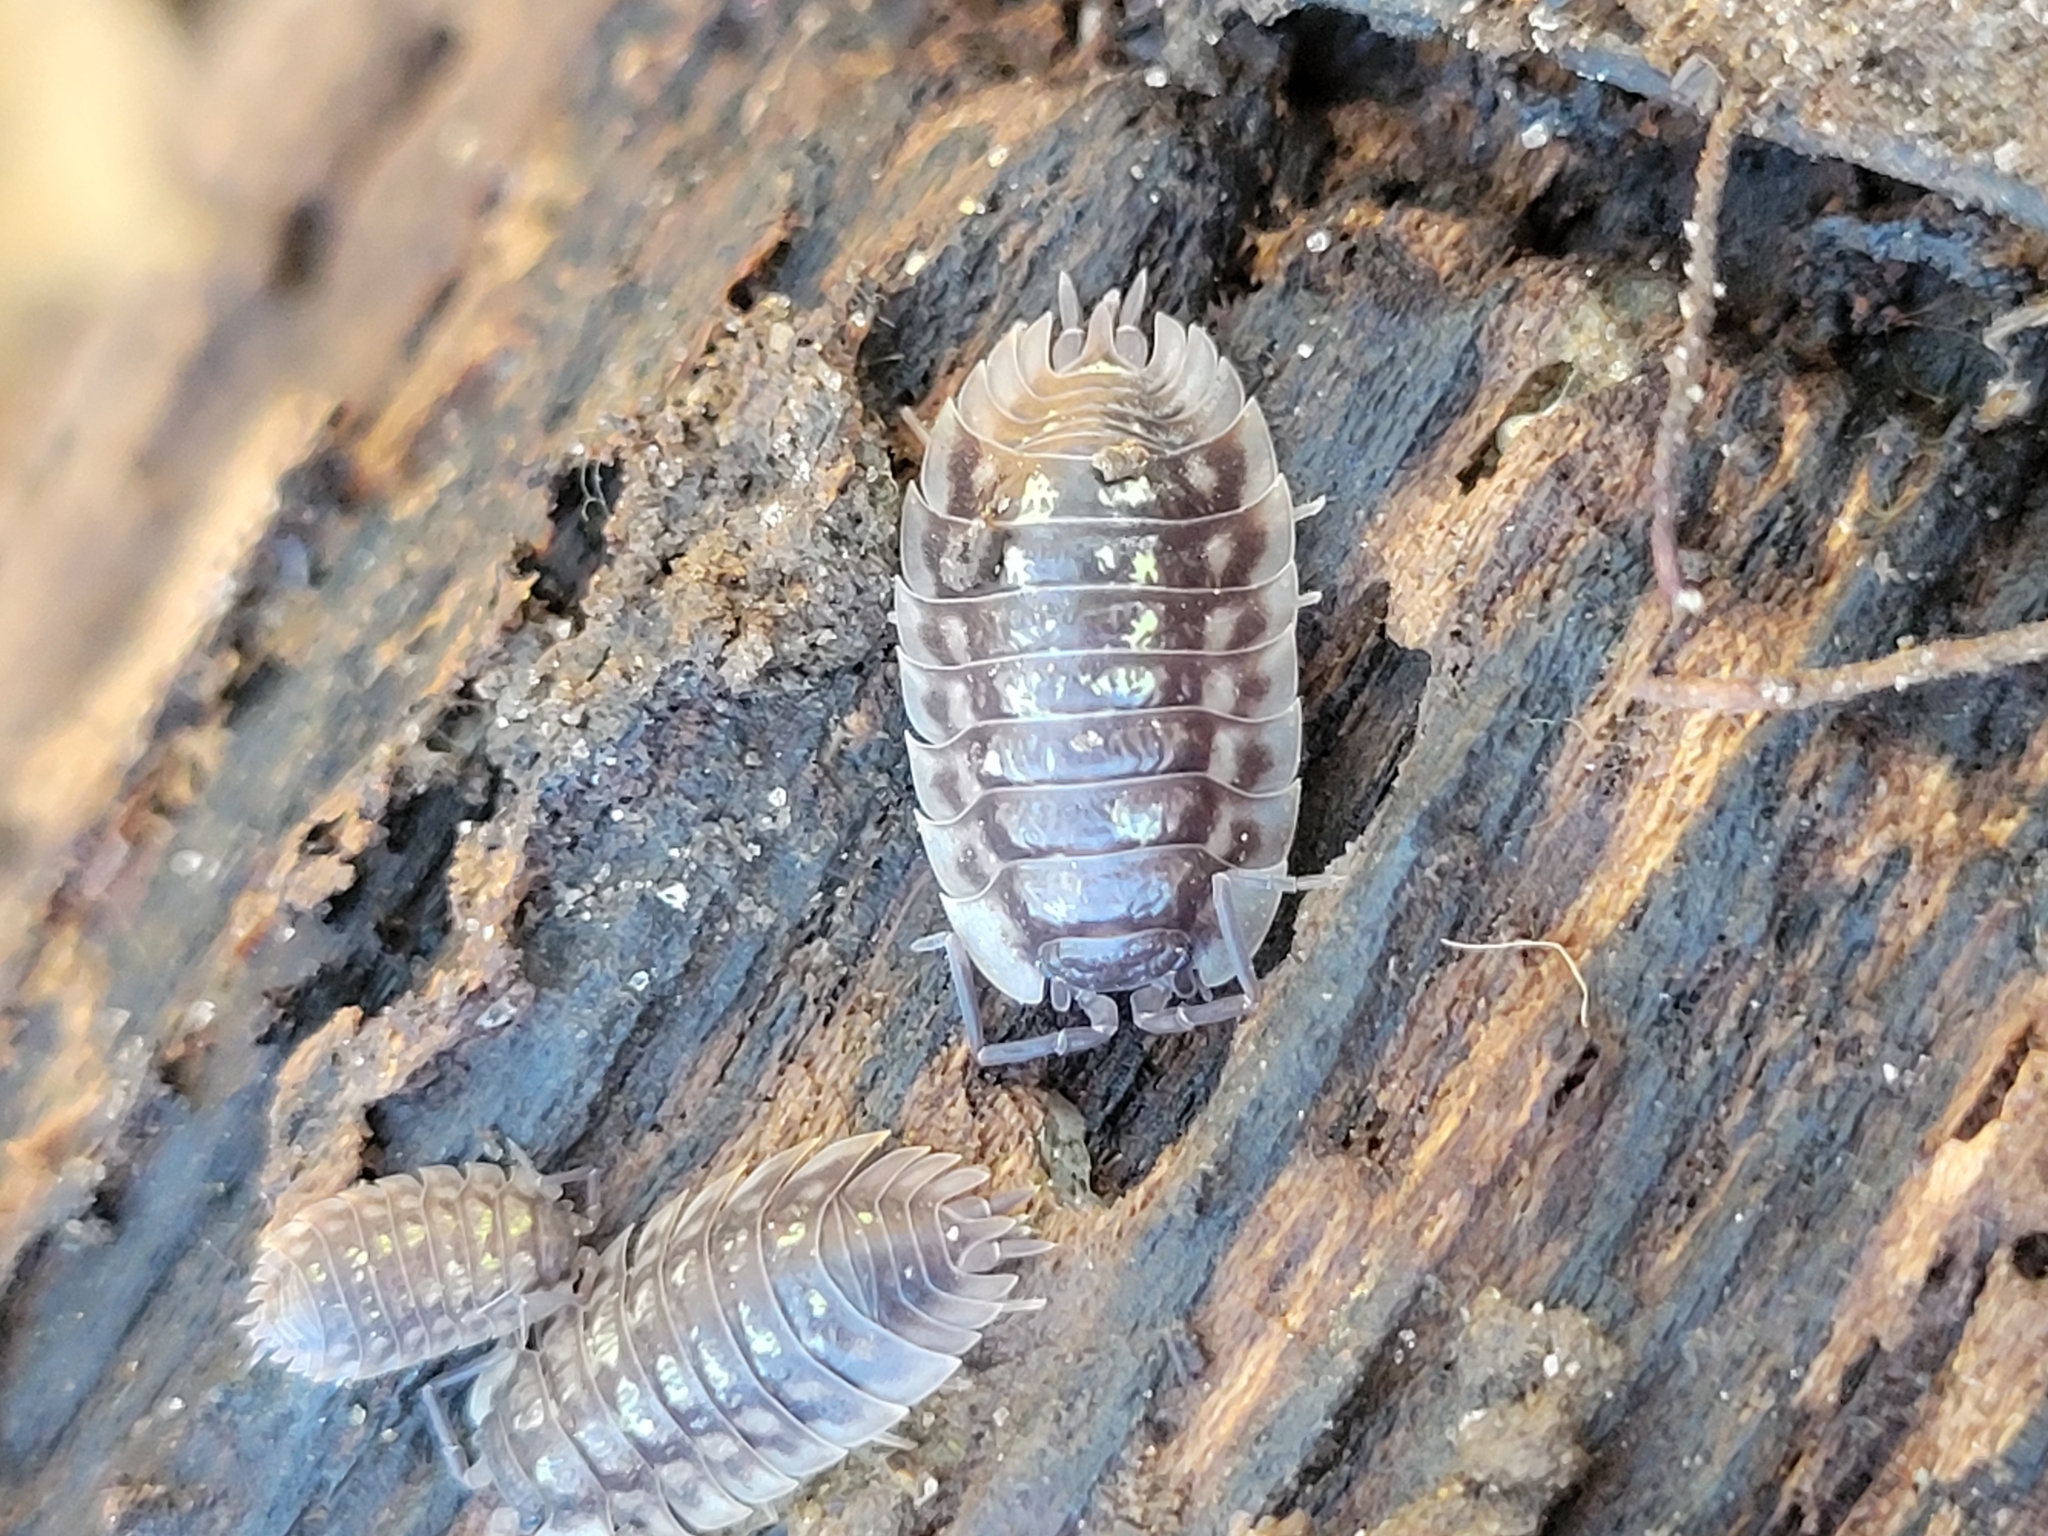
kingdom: Animalia
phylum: Arthropoda
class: Malacostraca
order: Isopoda
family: Oniscidae
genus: Oniscus
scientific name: Oniscus asellus
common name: Common shiny woodlouse
